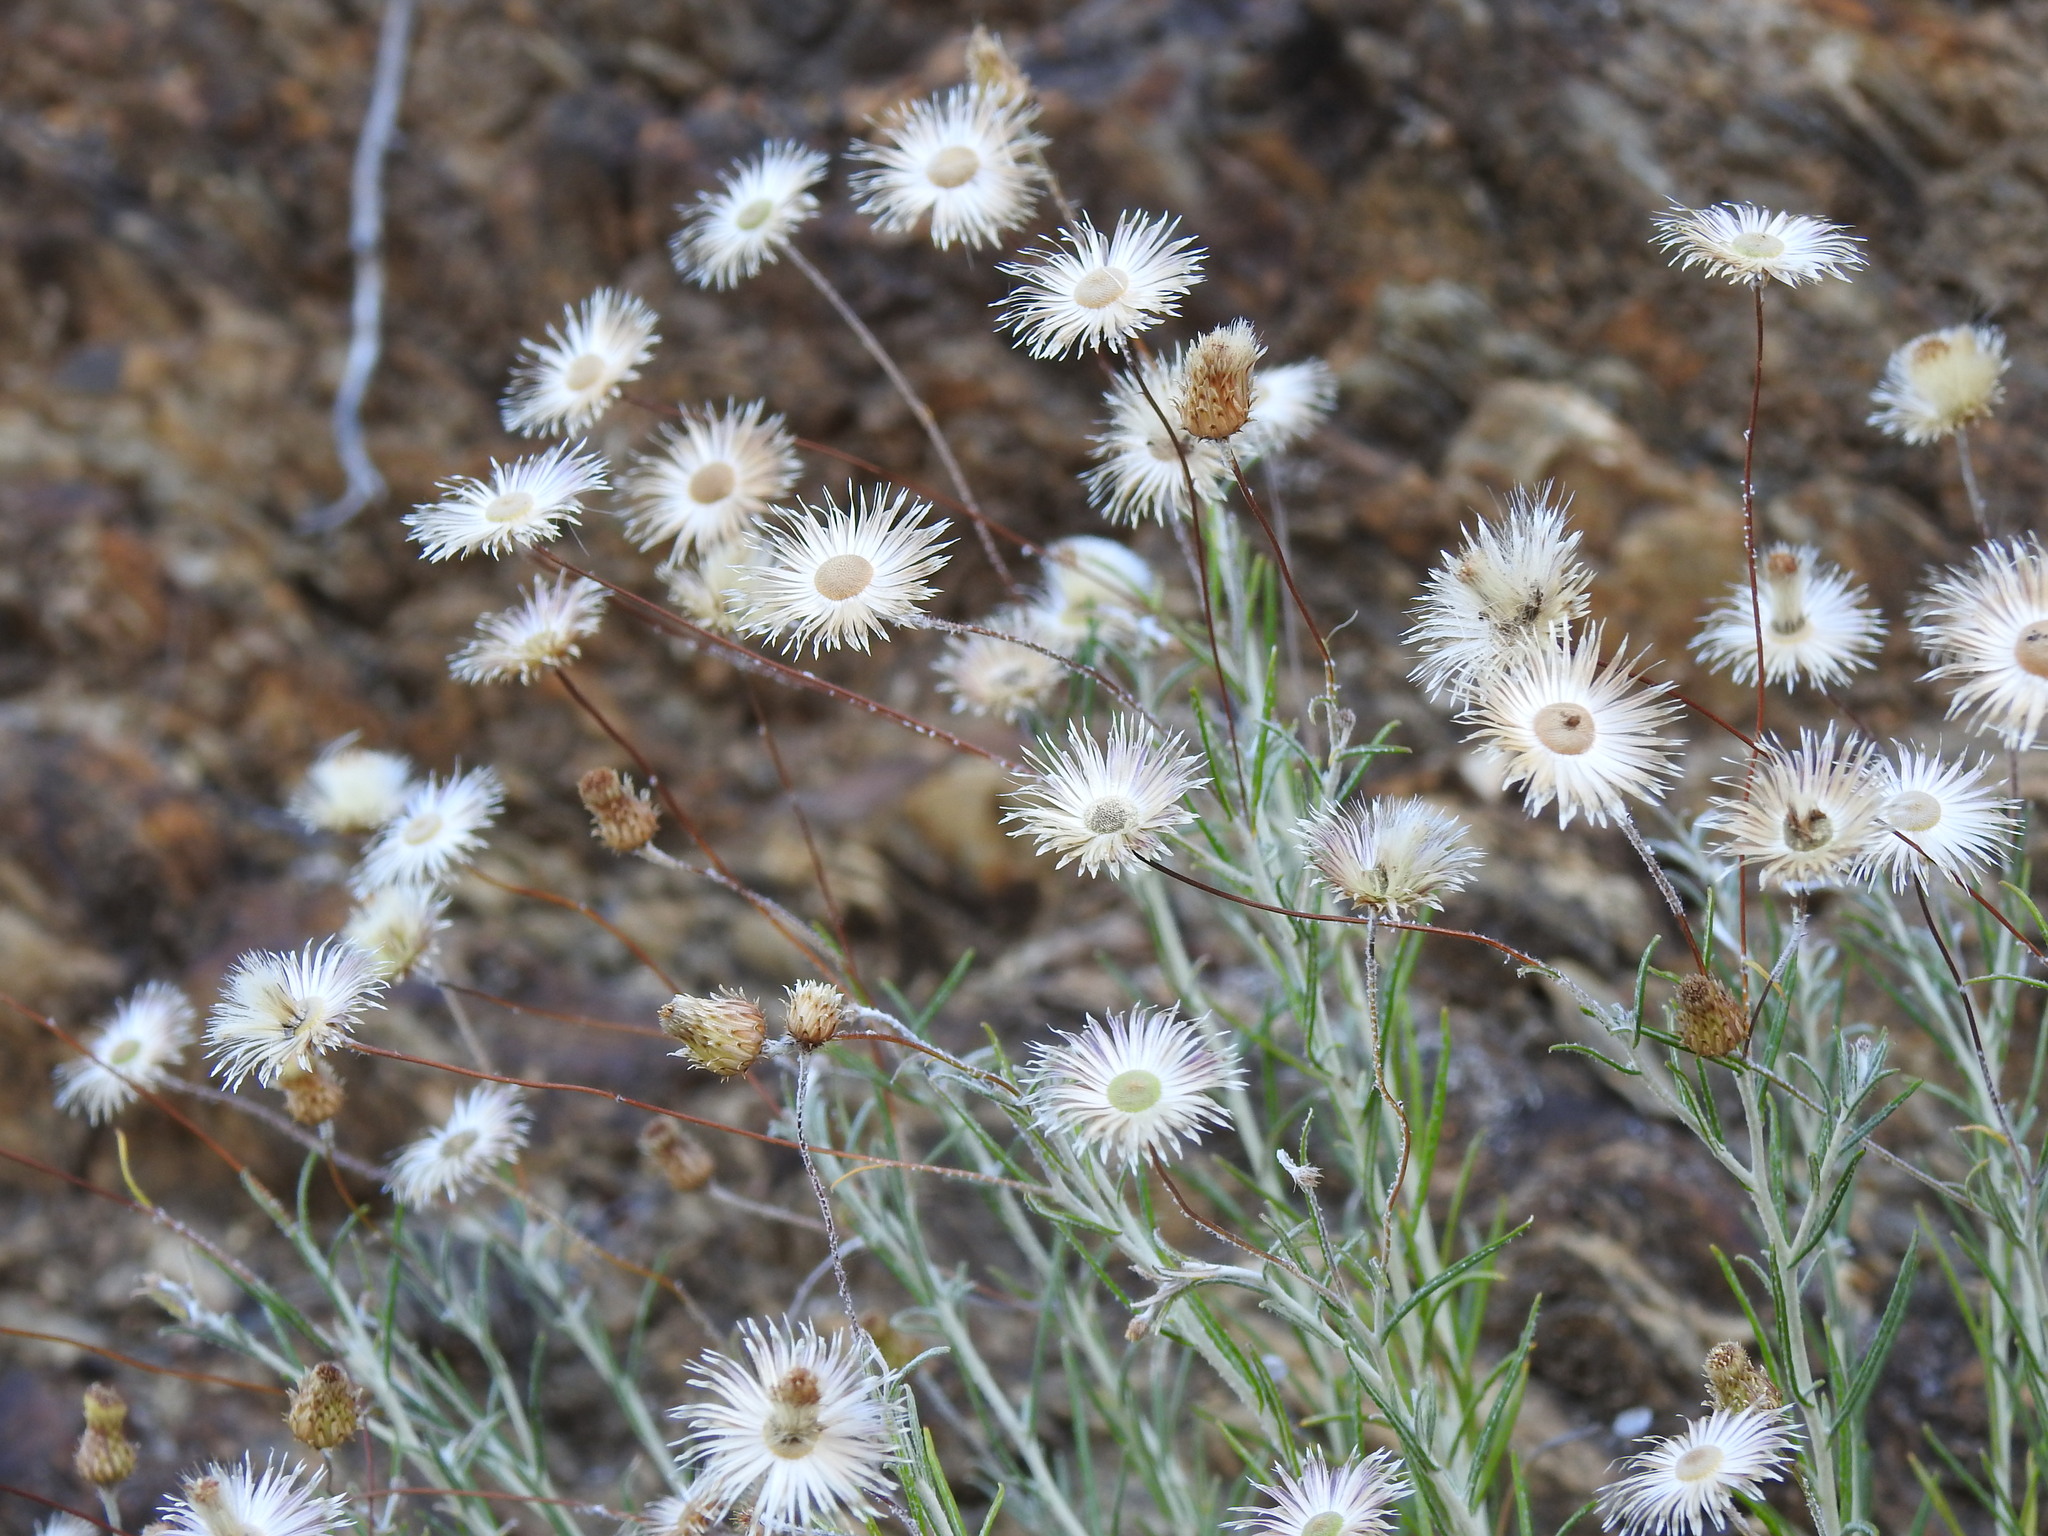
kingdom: Plantae
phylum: Tracheophyta
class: Magnoliopsida
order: Asterales
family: Asteraceae
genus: Phagnalon
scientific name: Phagnalon saxatile
